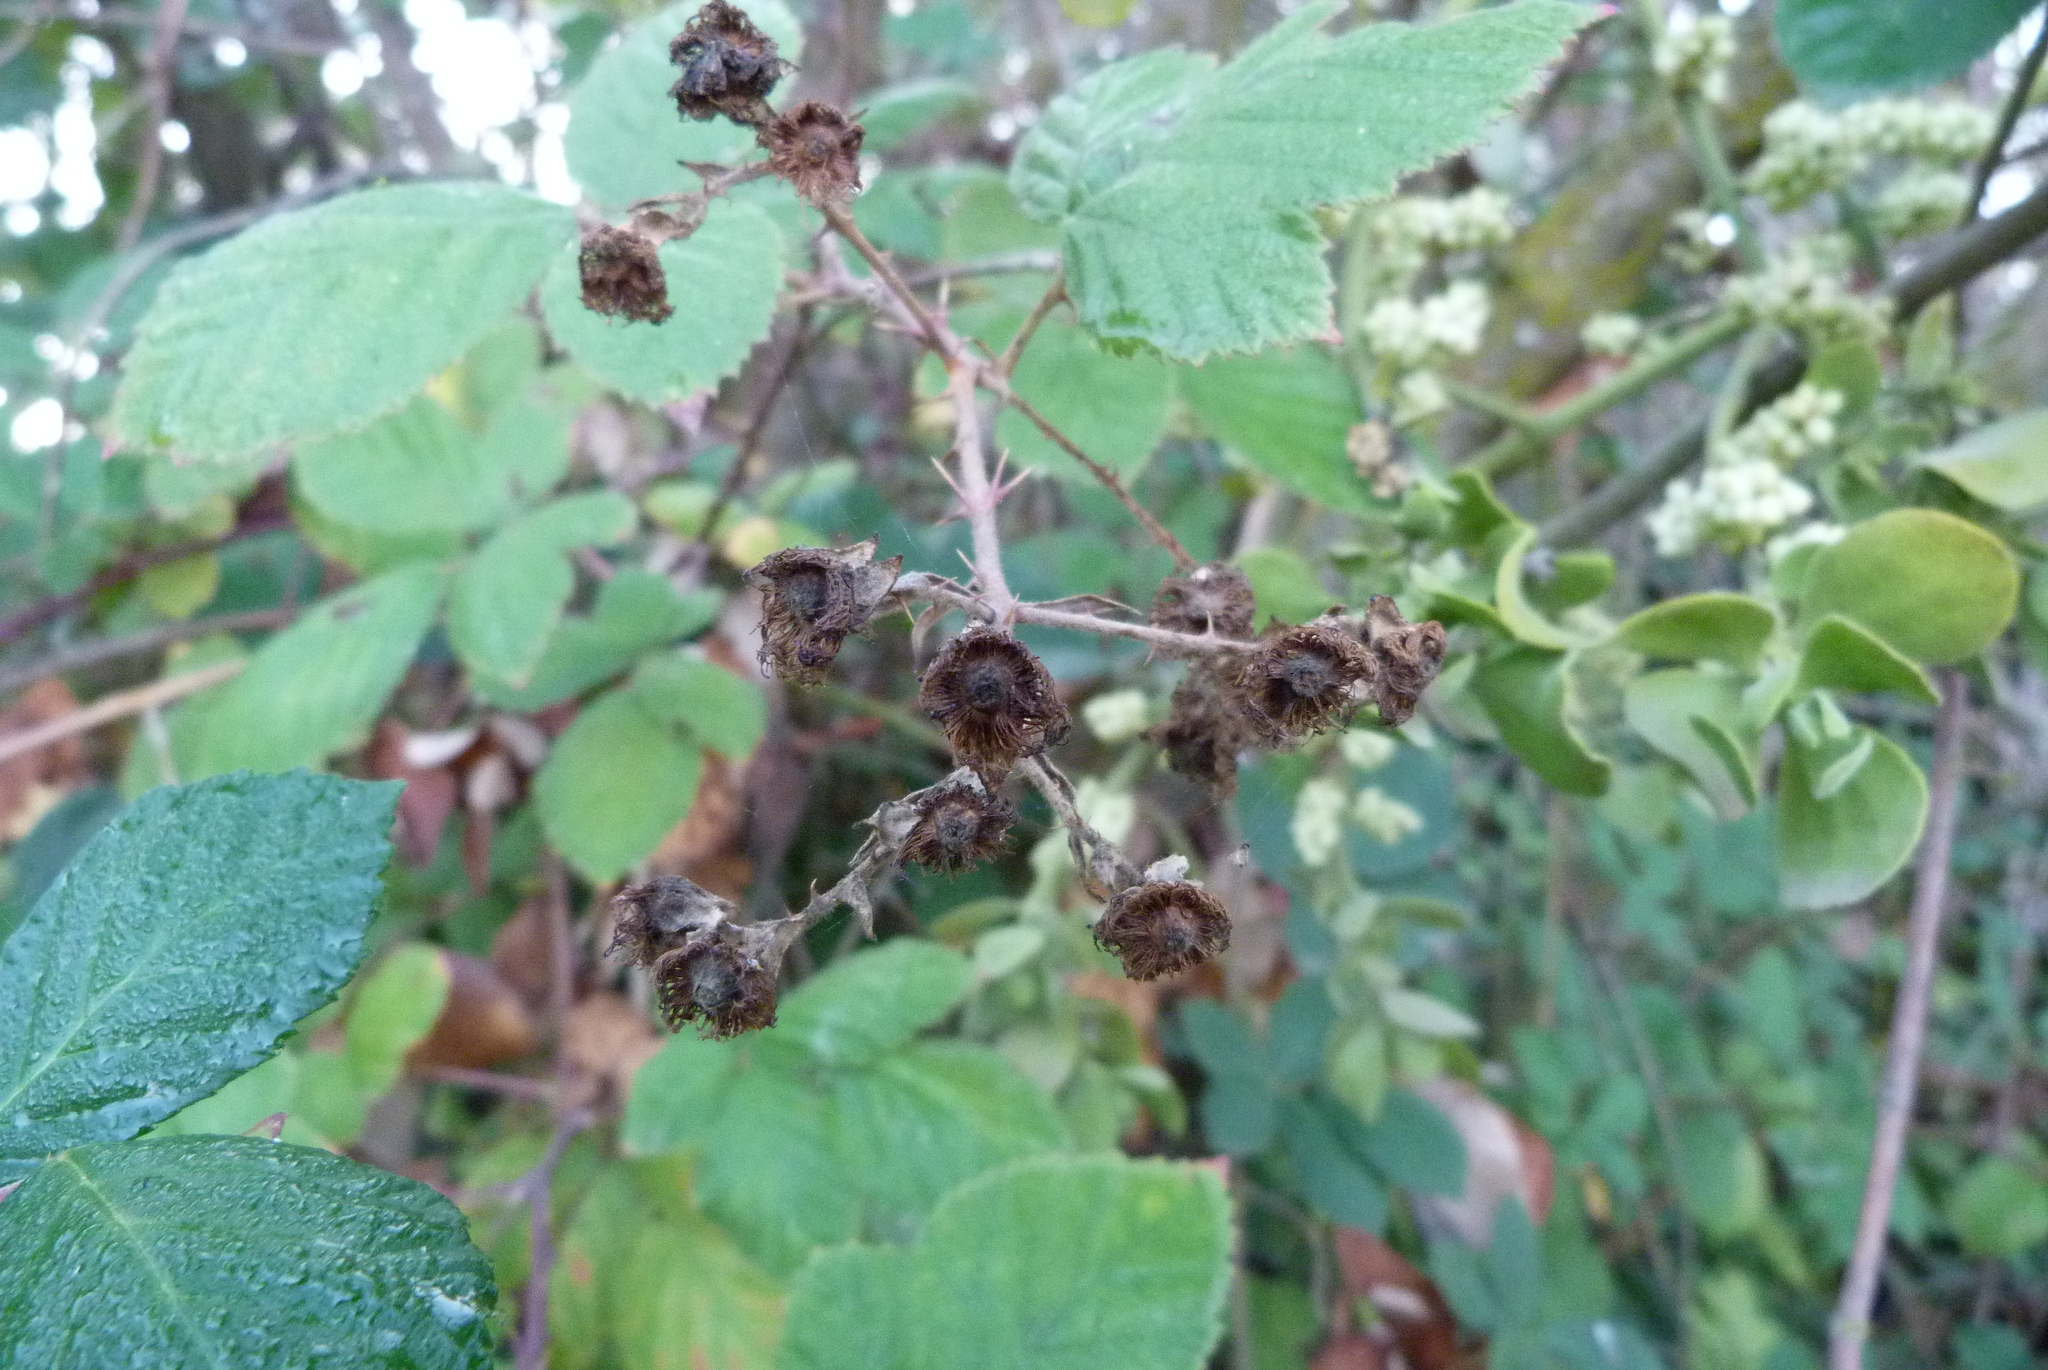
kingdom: Plantae
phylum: Tracheophyta
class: Magnoliopsida
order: Rosales
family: Rosaceae
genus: Rubus
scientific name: Rubus armeniacus
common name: Himalayan blackberry
